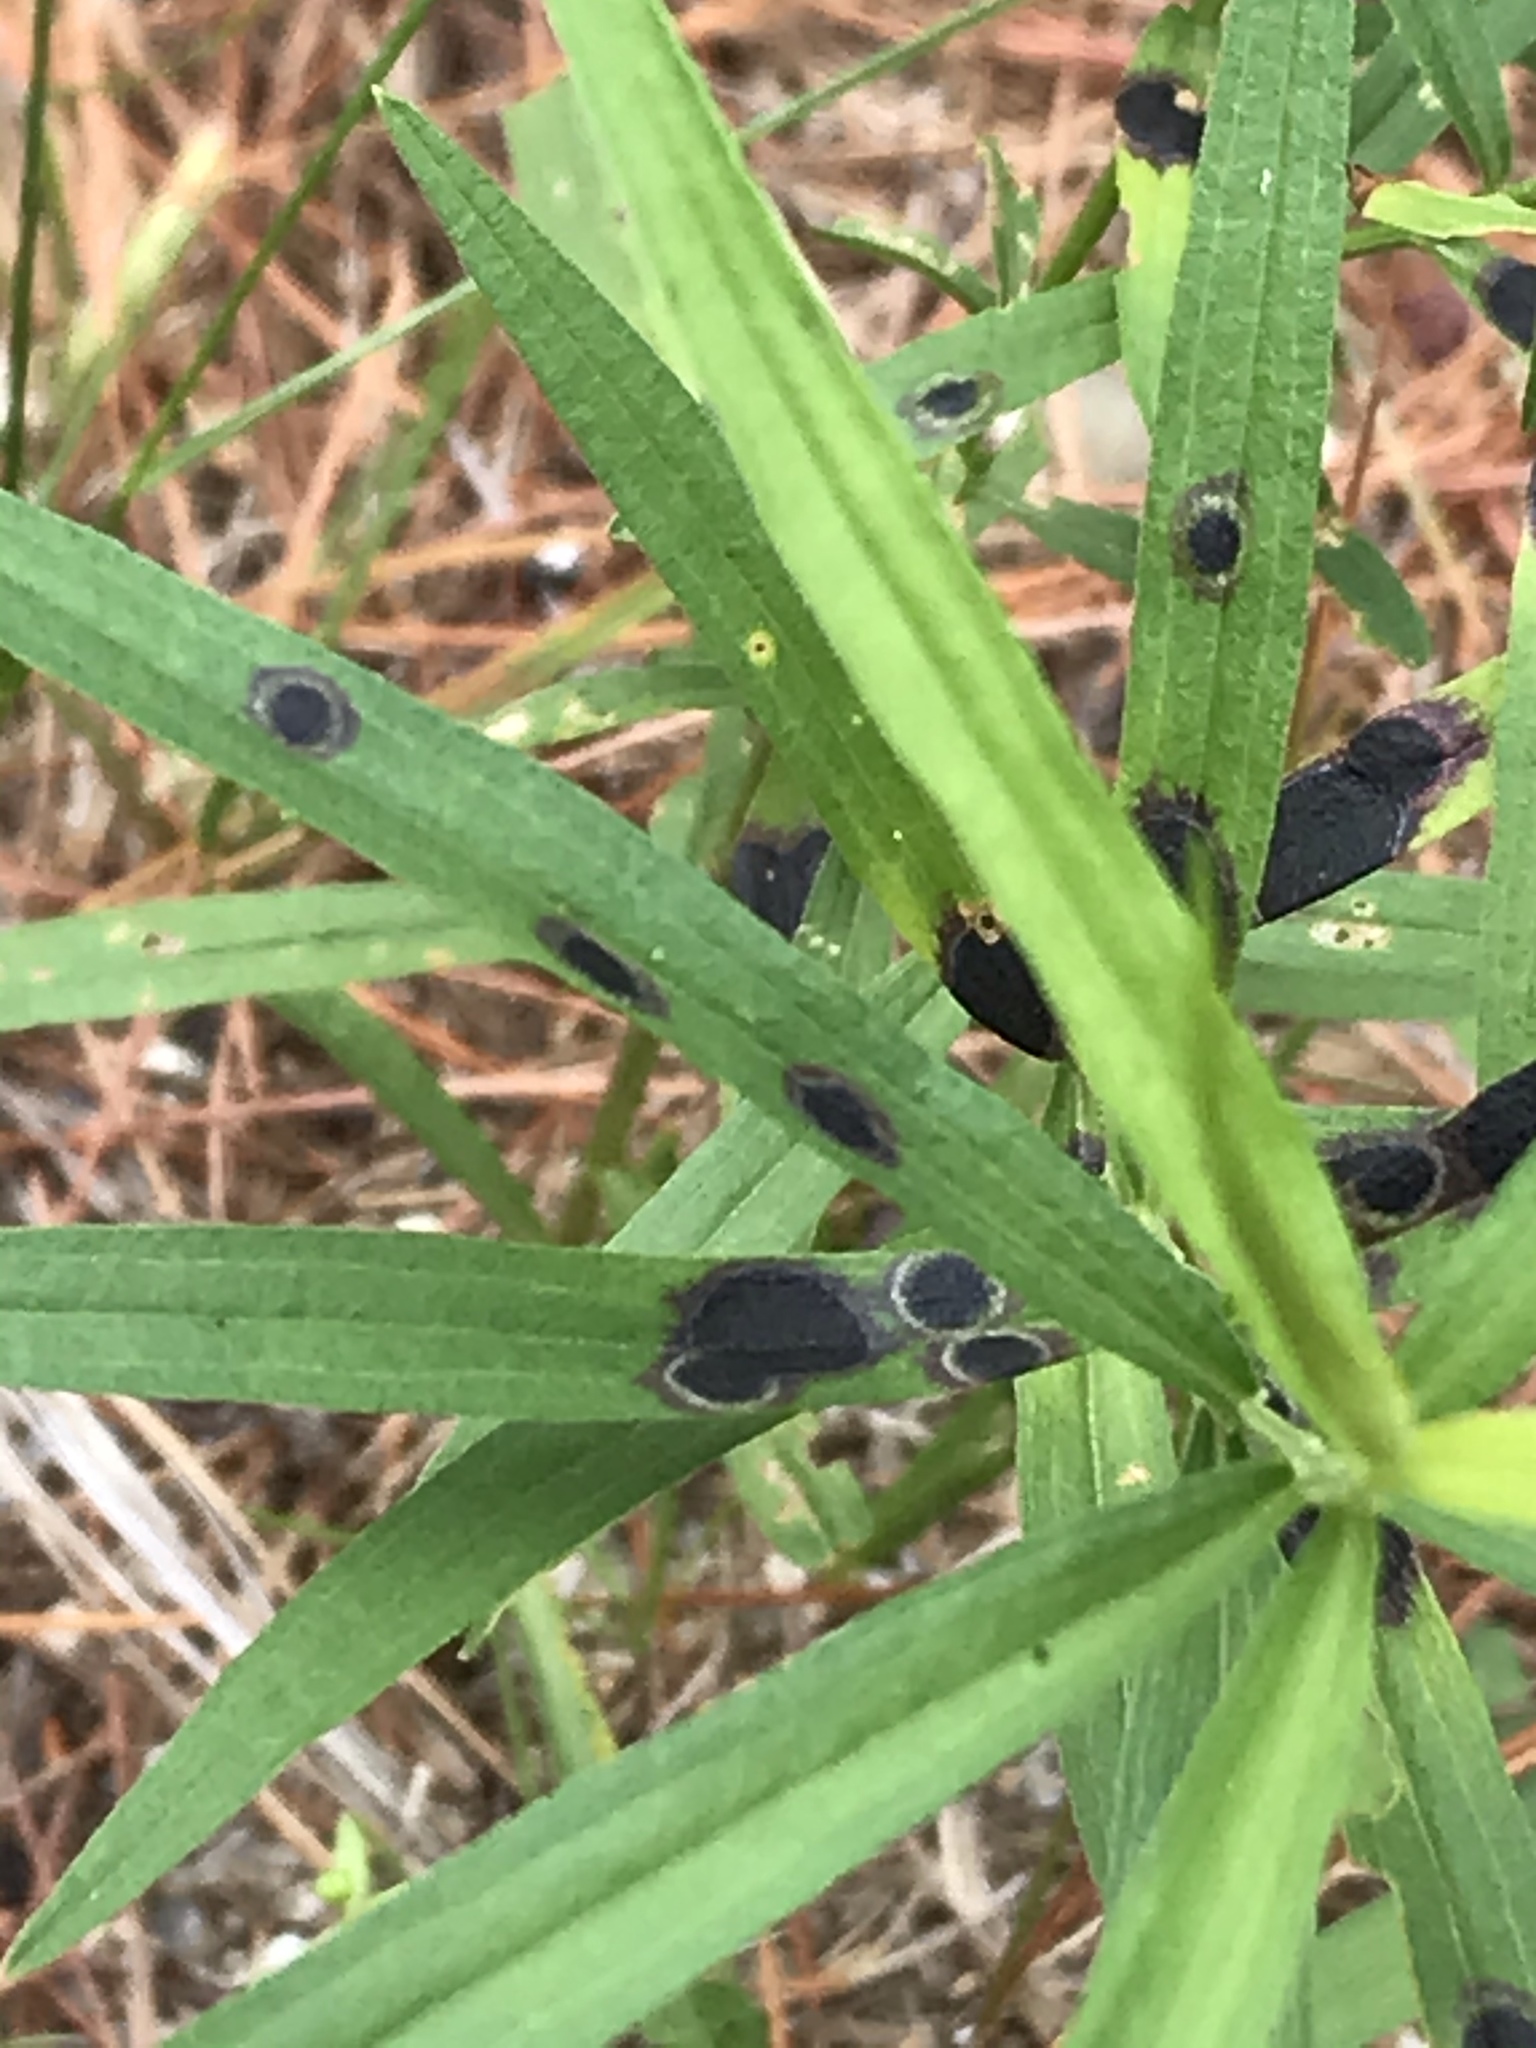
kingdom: Animalia
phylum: Arthropoda
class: Insecta
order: Diptera
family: Cecidomyiidae
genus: Asteromyia
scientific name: Asteromyia euthamiae
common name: Euthamia leaf gall midge
